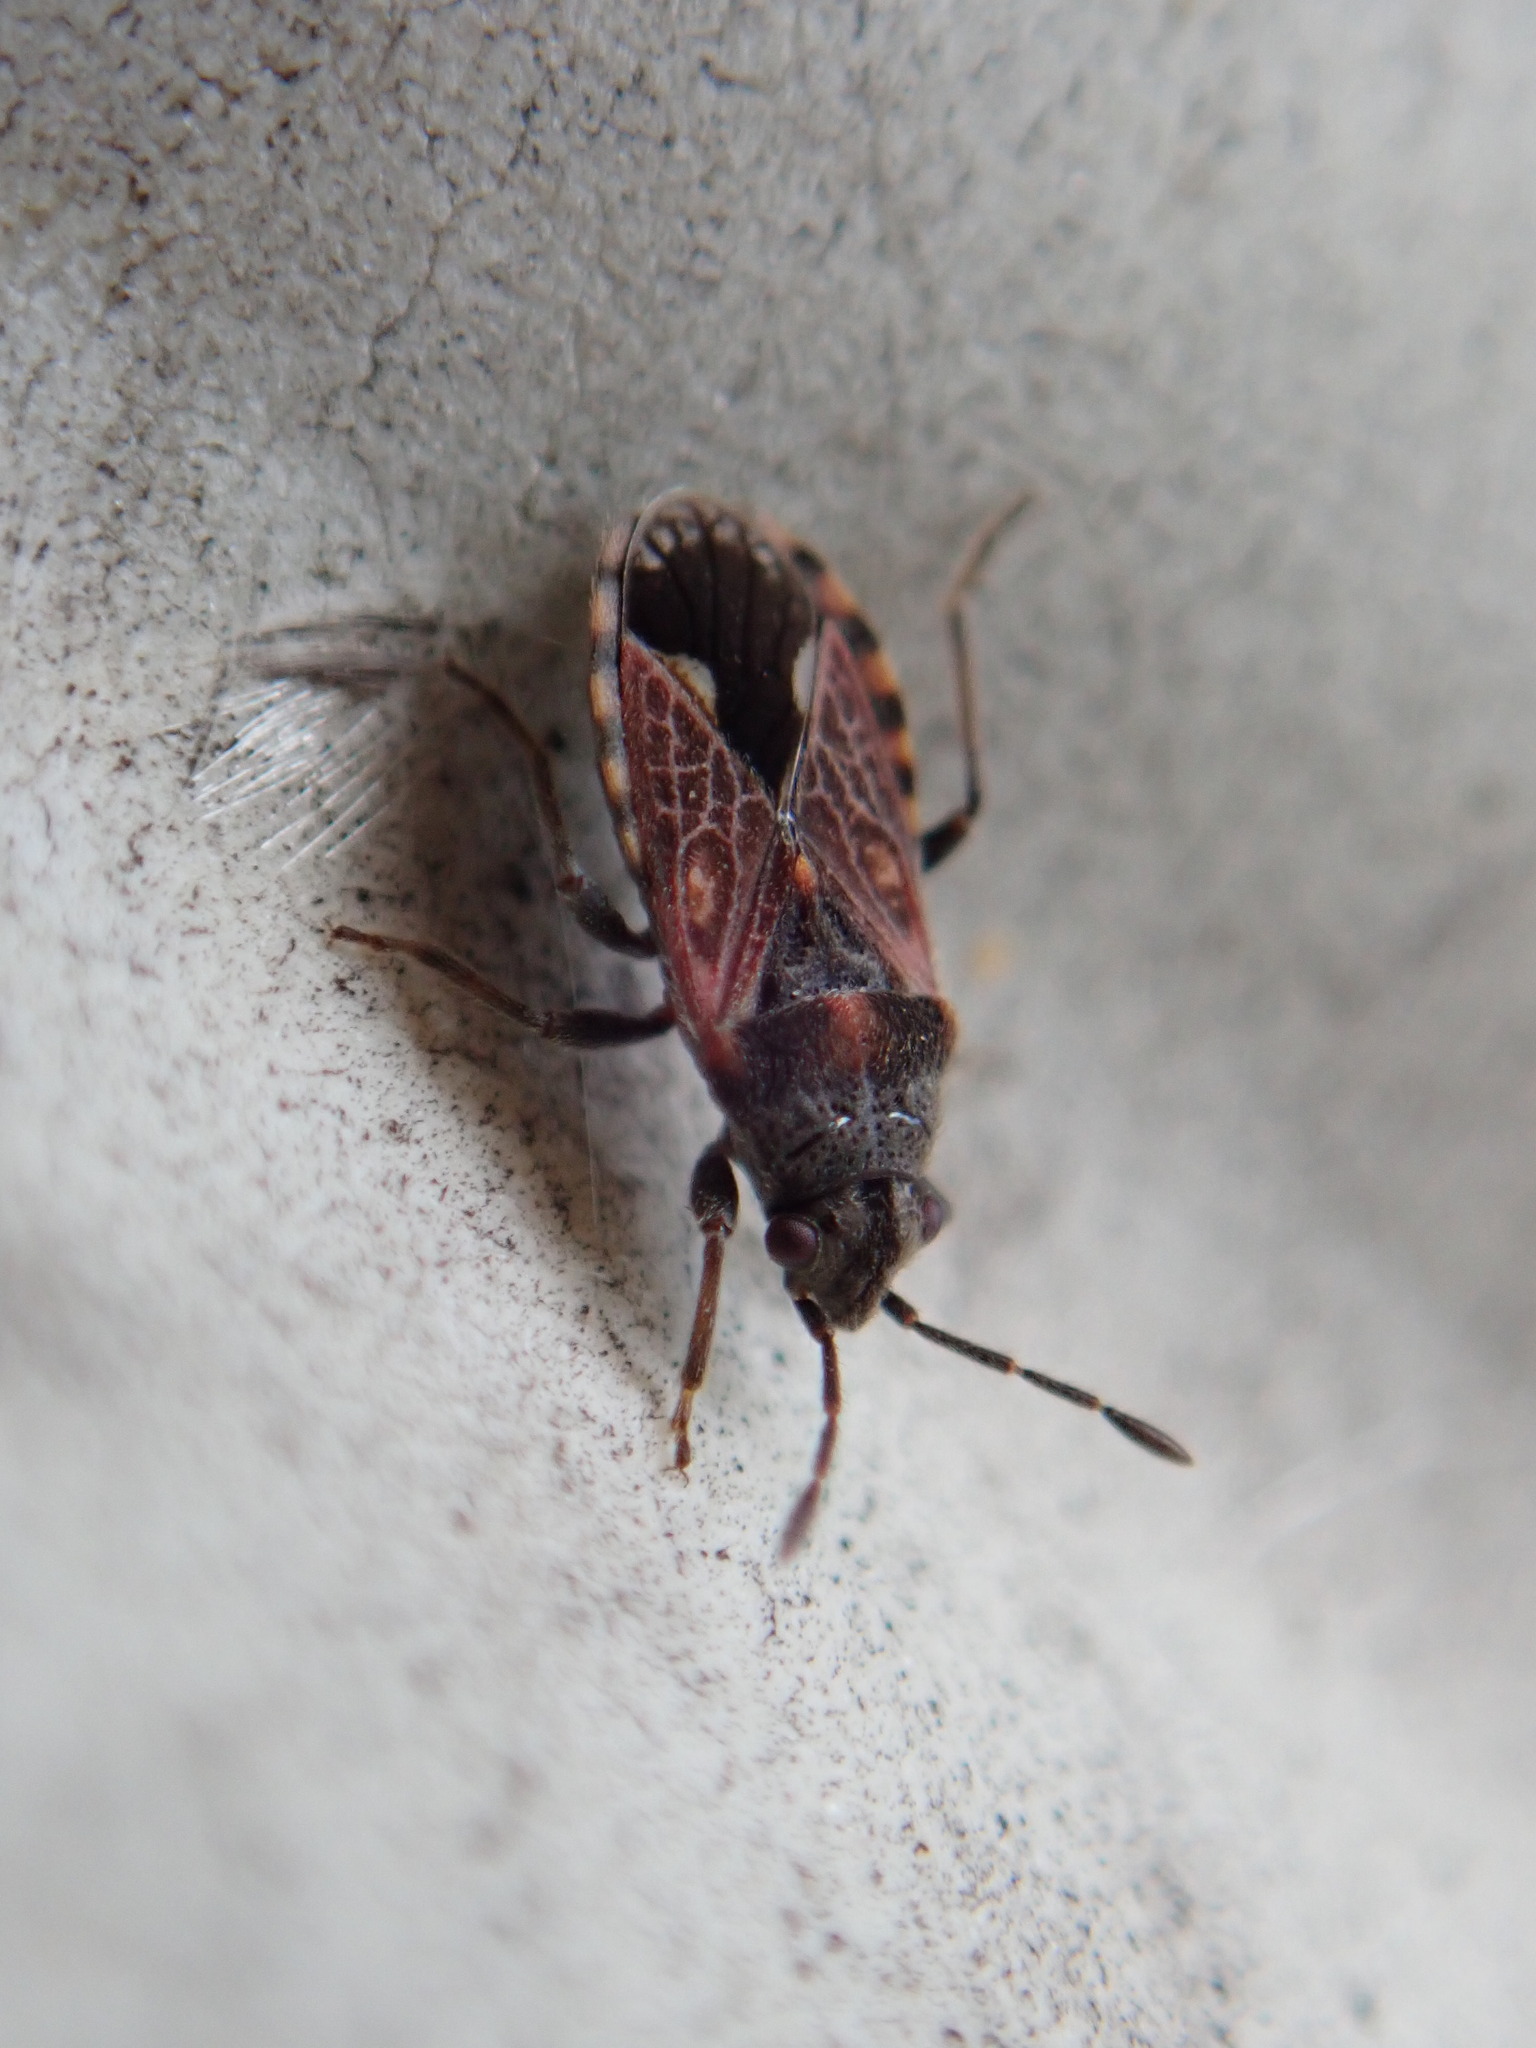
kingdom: Animalia
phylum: Arthropoda
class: Insecta
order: Hemiptera
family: Lygaeidae
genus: Lygaeosoma
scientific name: Lygaeosoma sardeum
